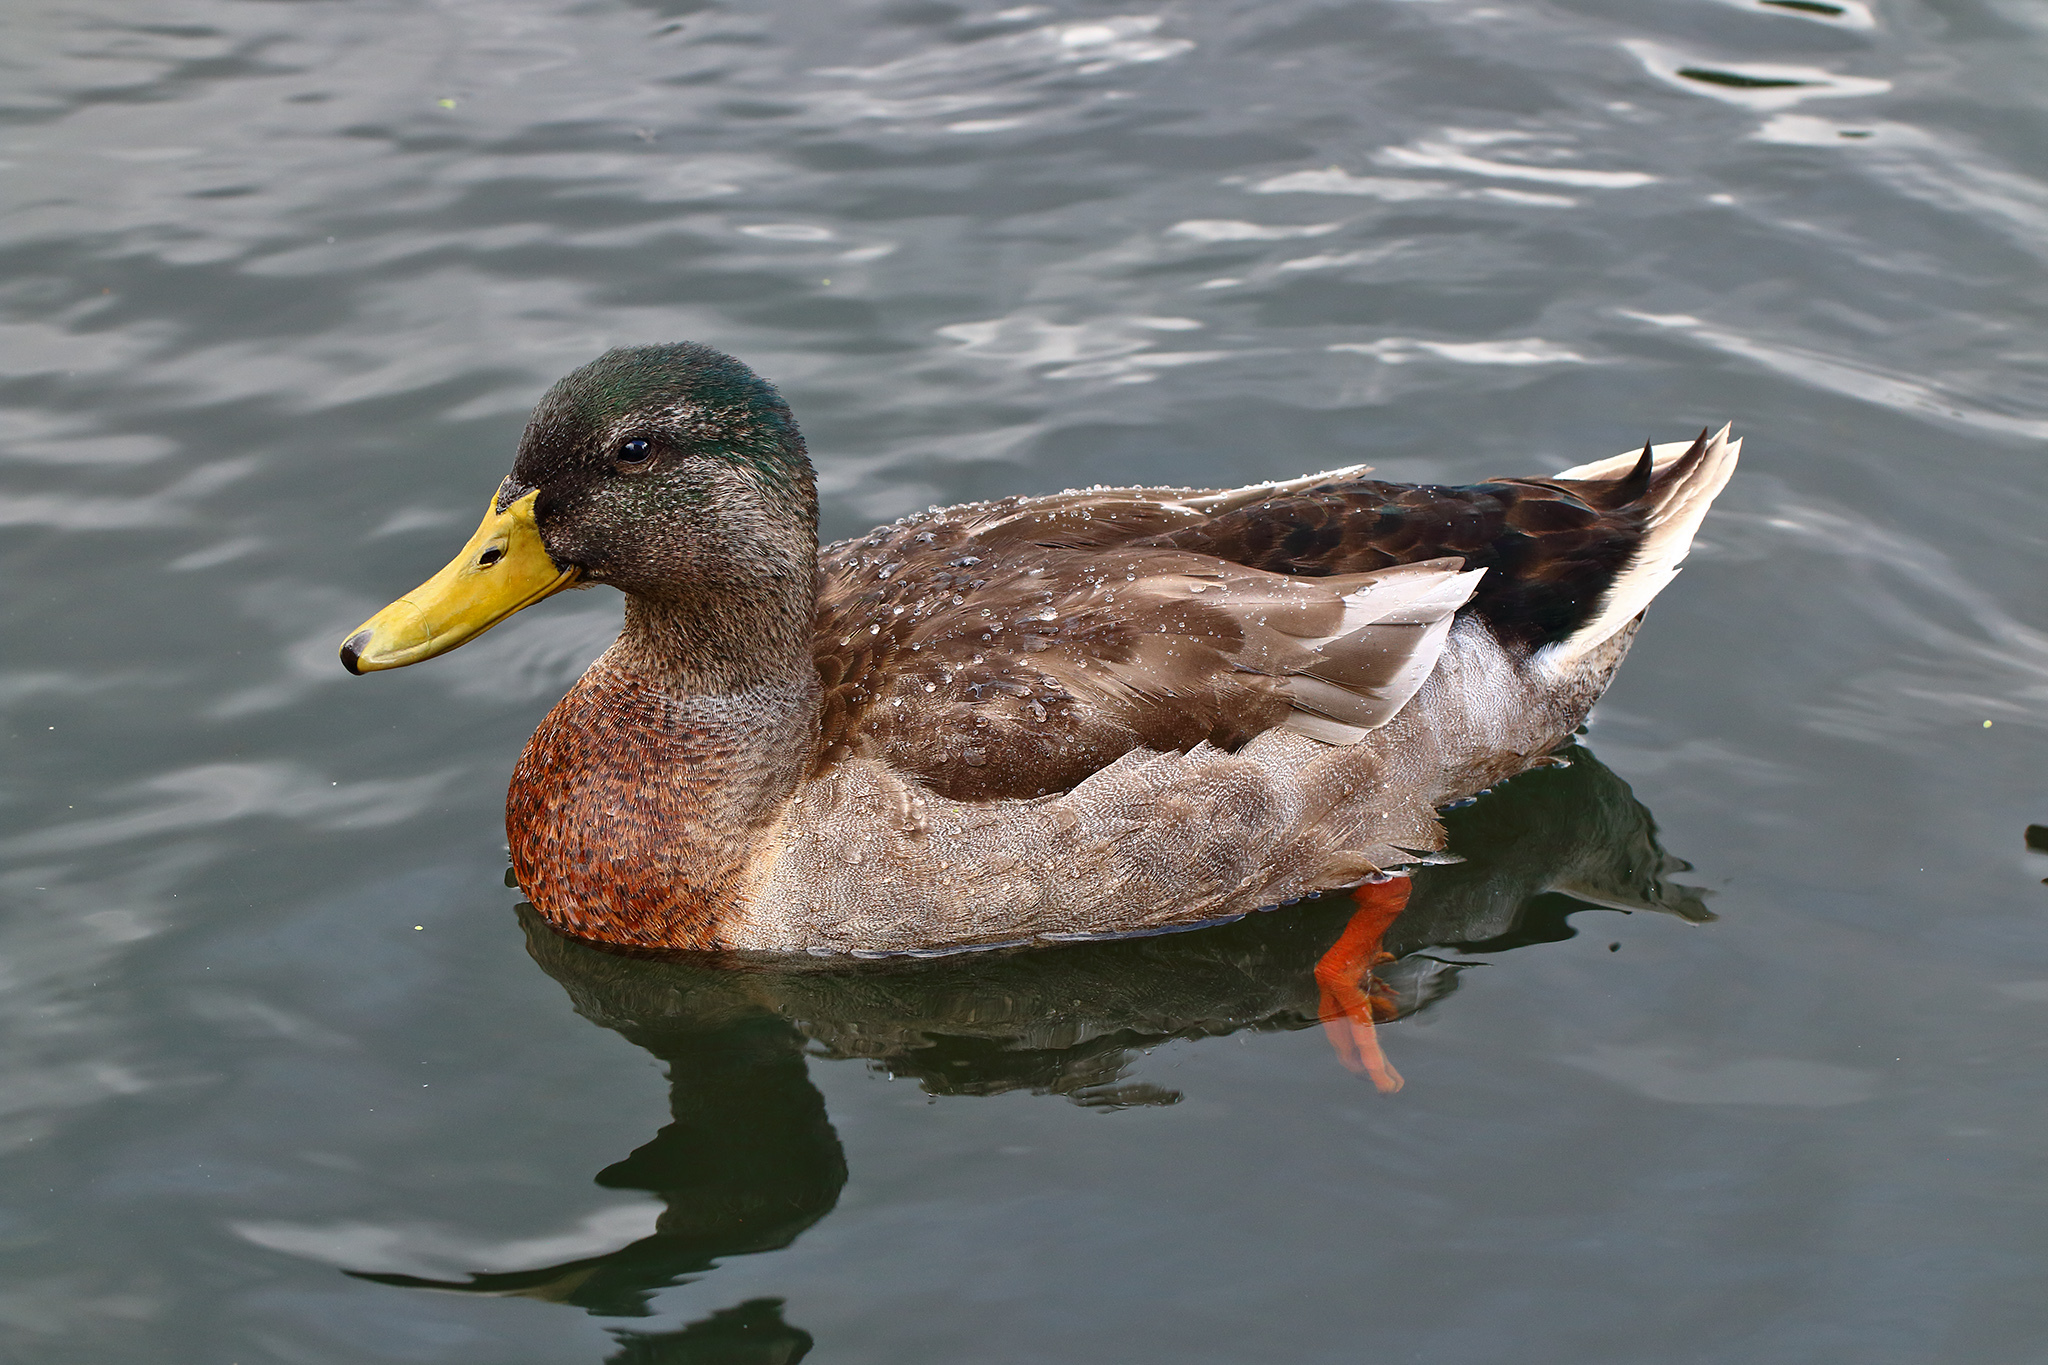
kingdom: Animalia
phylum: Chordata
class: Aves
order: Anseriformes
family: Anatidae
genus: Anas
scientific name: Anas platyrhynchos
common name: Mallard
